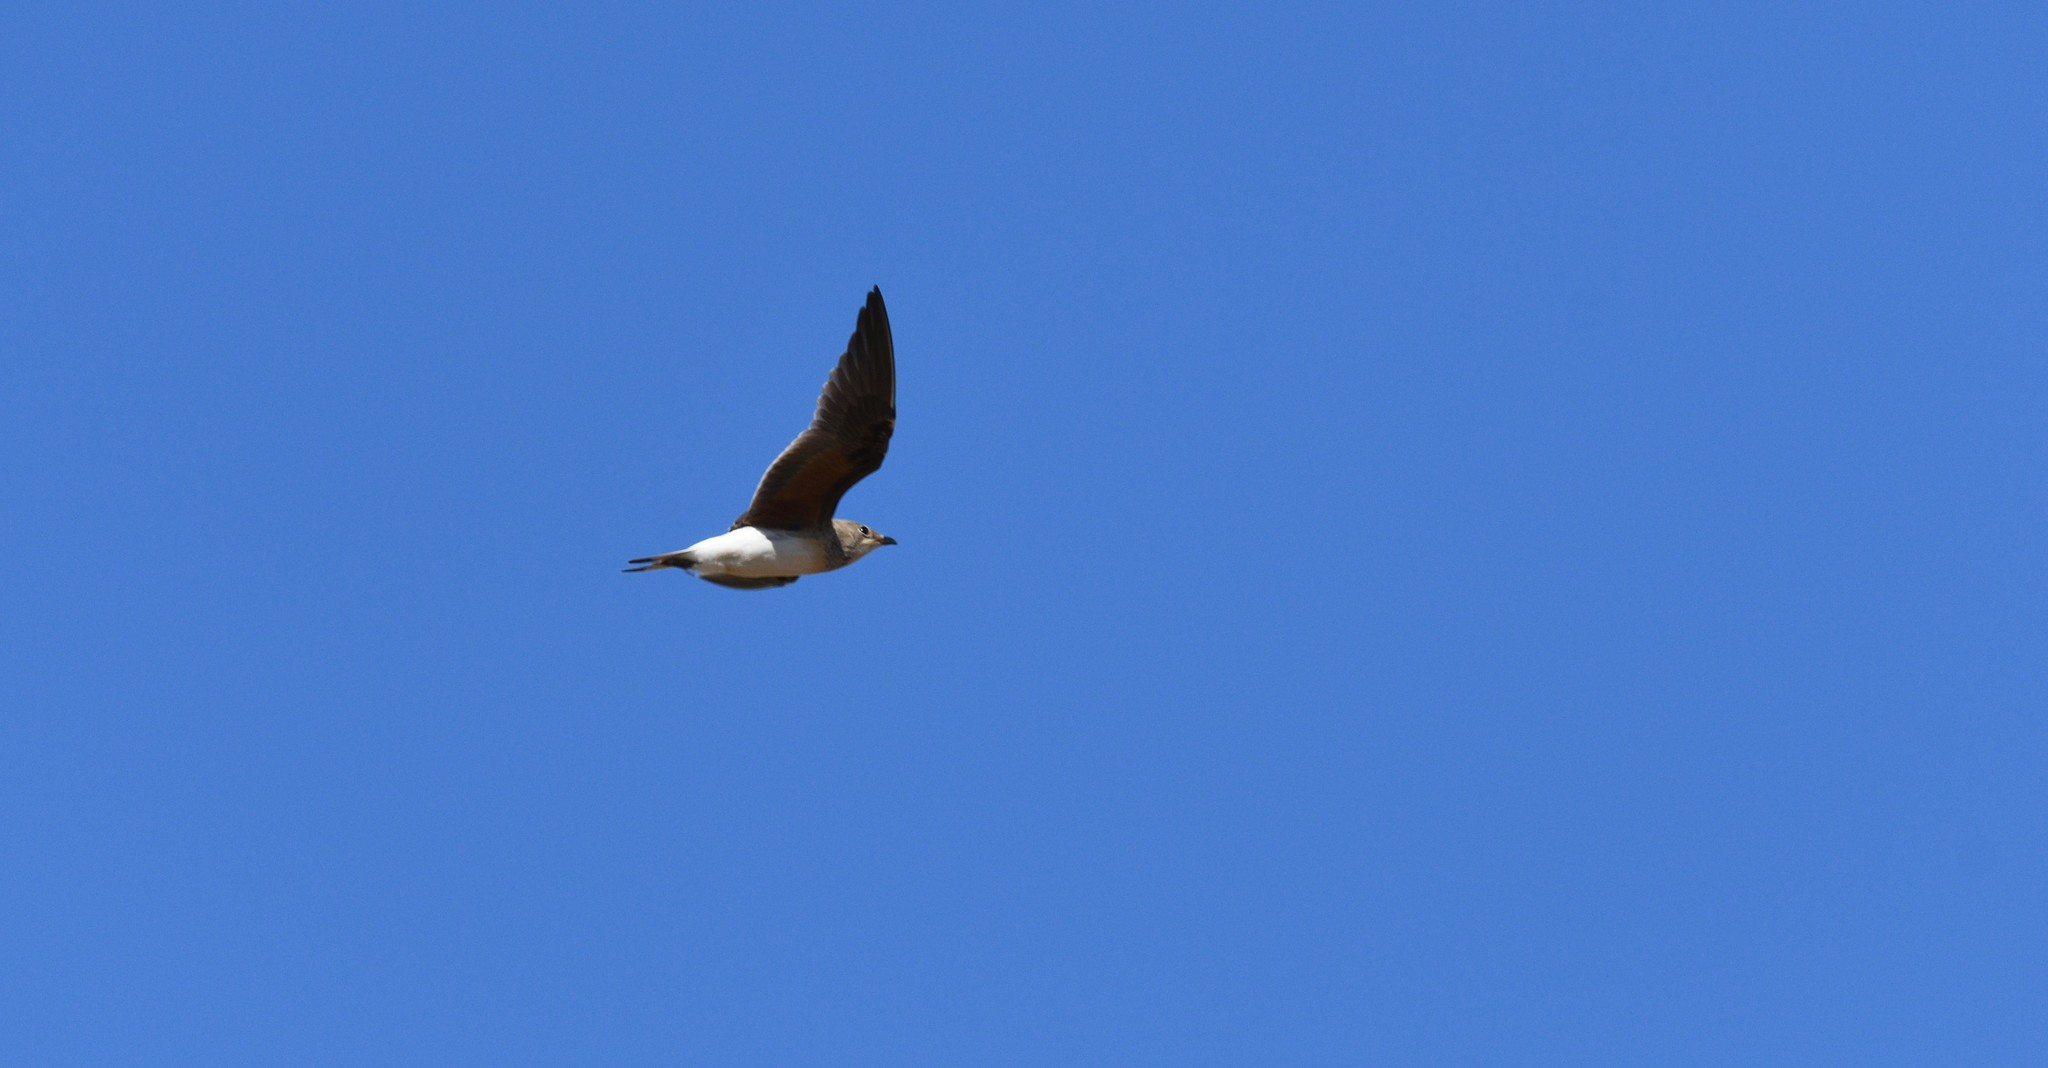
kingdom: Animalia
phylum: Chordata
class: Aves
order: Charadriiformes
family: Glareolidae
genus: Glareola
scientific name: Glareola pratincola
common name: Collared pratincole
